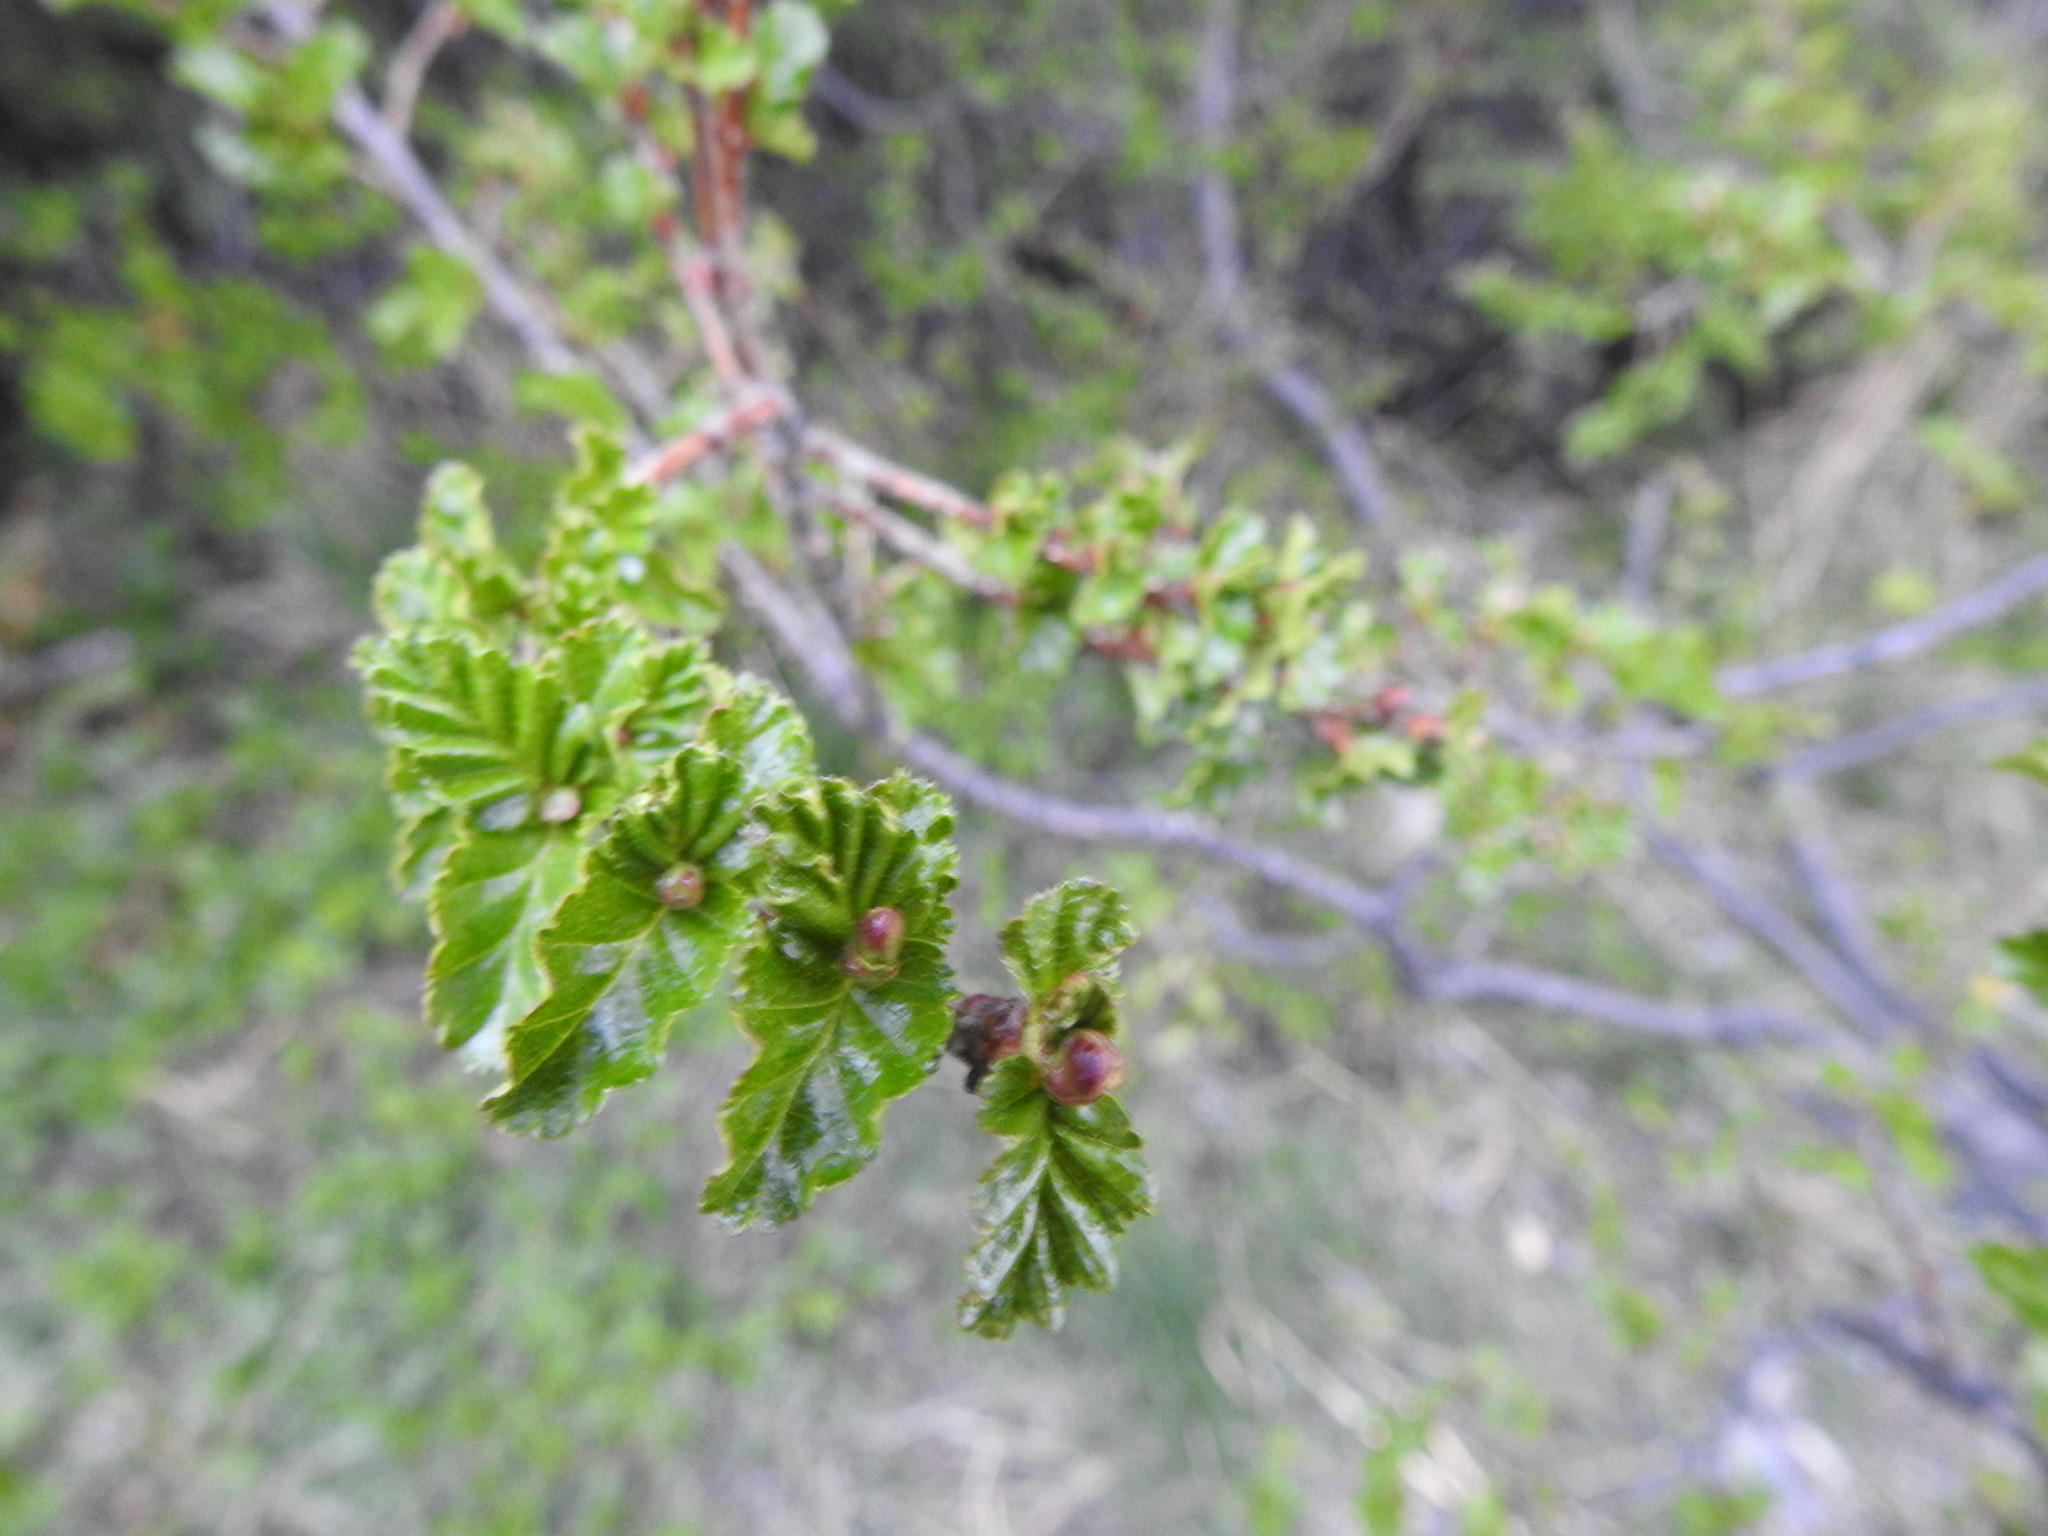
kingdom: Plantae
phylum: Tracheophyta
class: Magnoliopsida
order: Fagales
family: Nothofagaceae
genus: Nothofagus
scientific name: Nothofagus antarctica
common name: Antarctic beech
